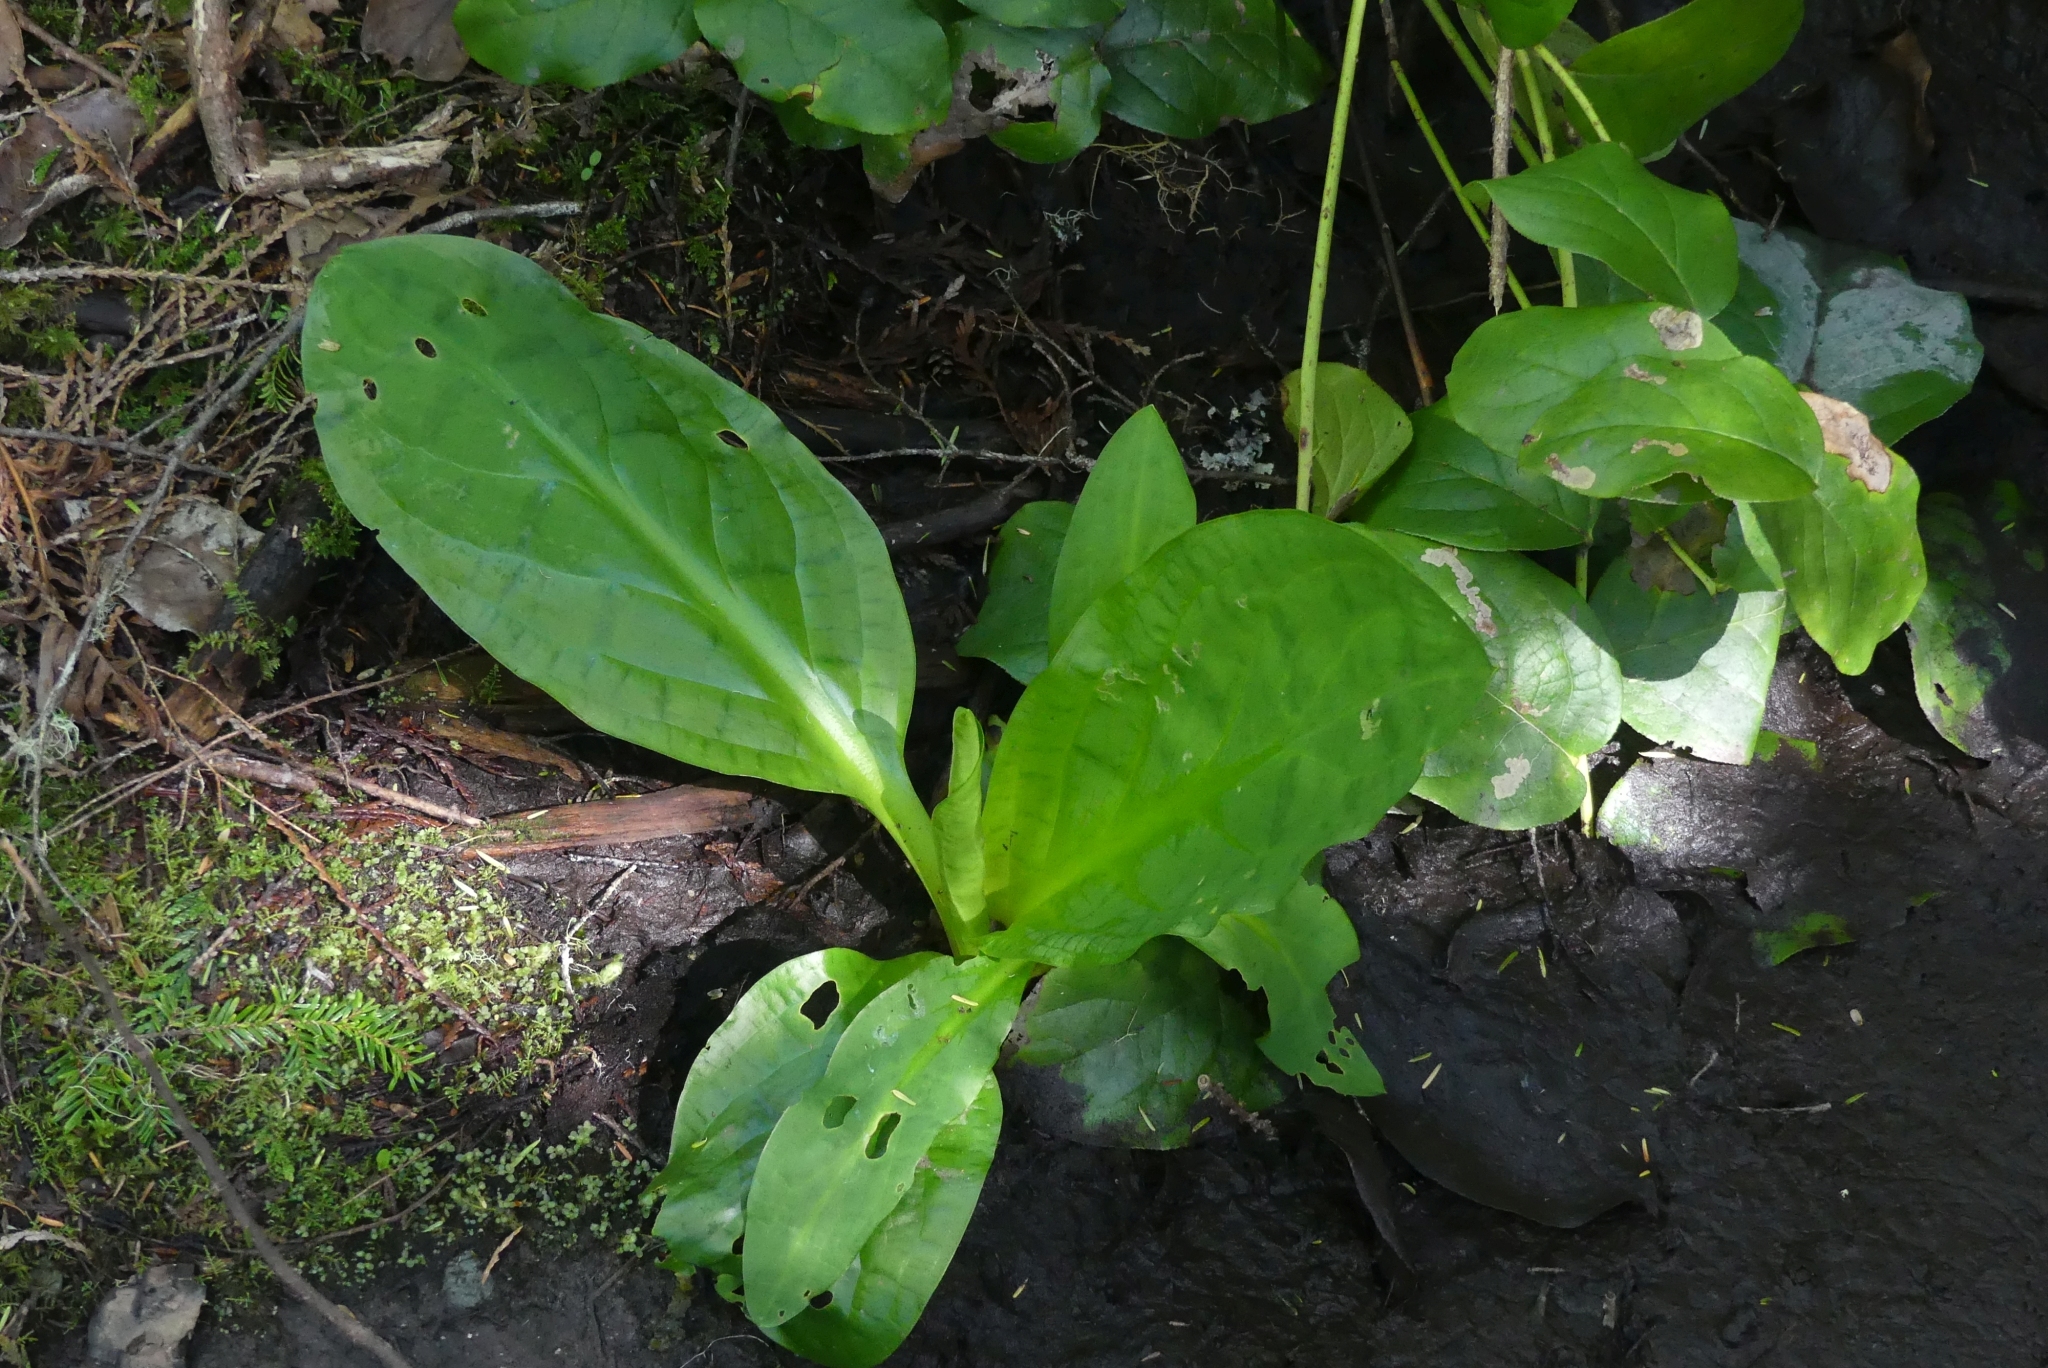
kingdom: Plantae
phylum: Tracheophyta
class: Liliopsida
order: Alismatales
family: Araceae
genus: Lysichiton
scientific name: Lysichiton americanus
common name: American skunk cabbage
